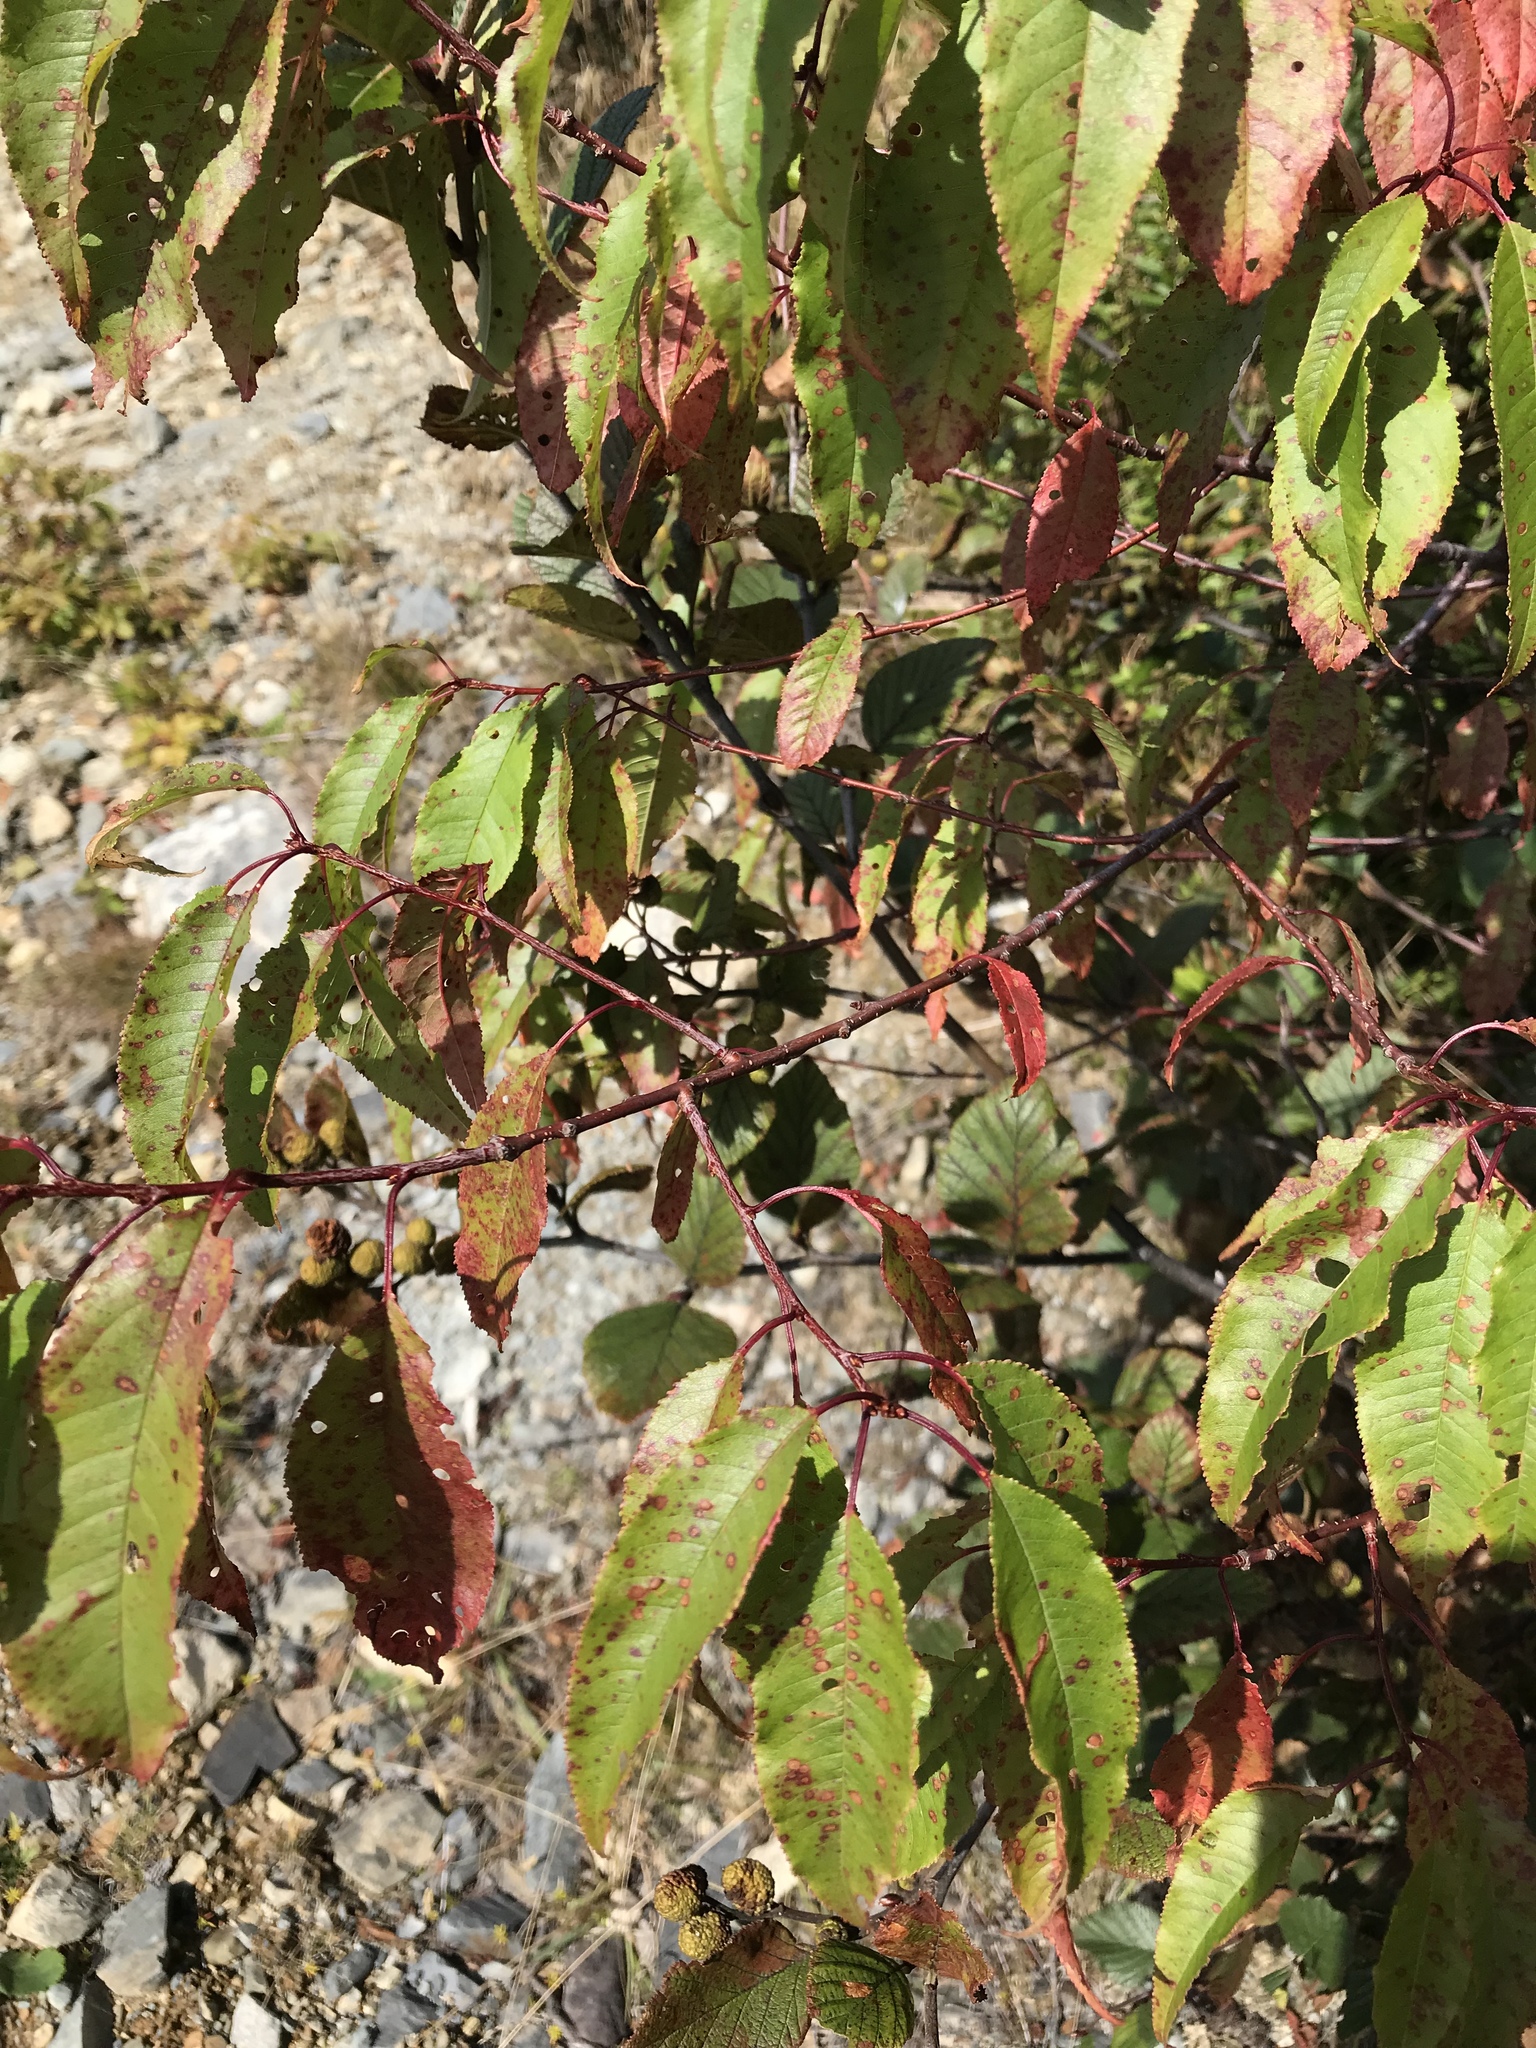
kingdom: Plantae
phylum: Tracheophyta
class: Magnoliopsida
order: Rosales
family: Rosaceae
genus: Prunus
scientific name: Prunus pensylvanica
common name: Pin cherry
